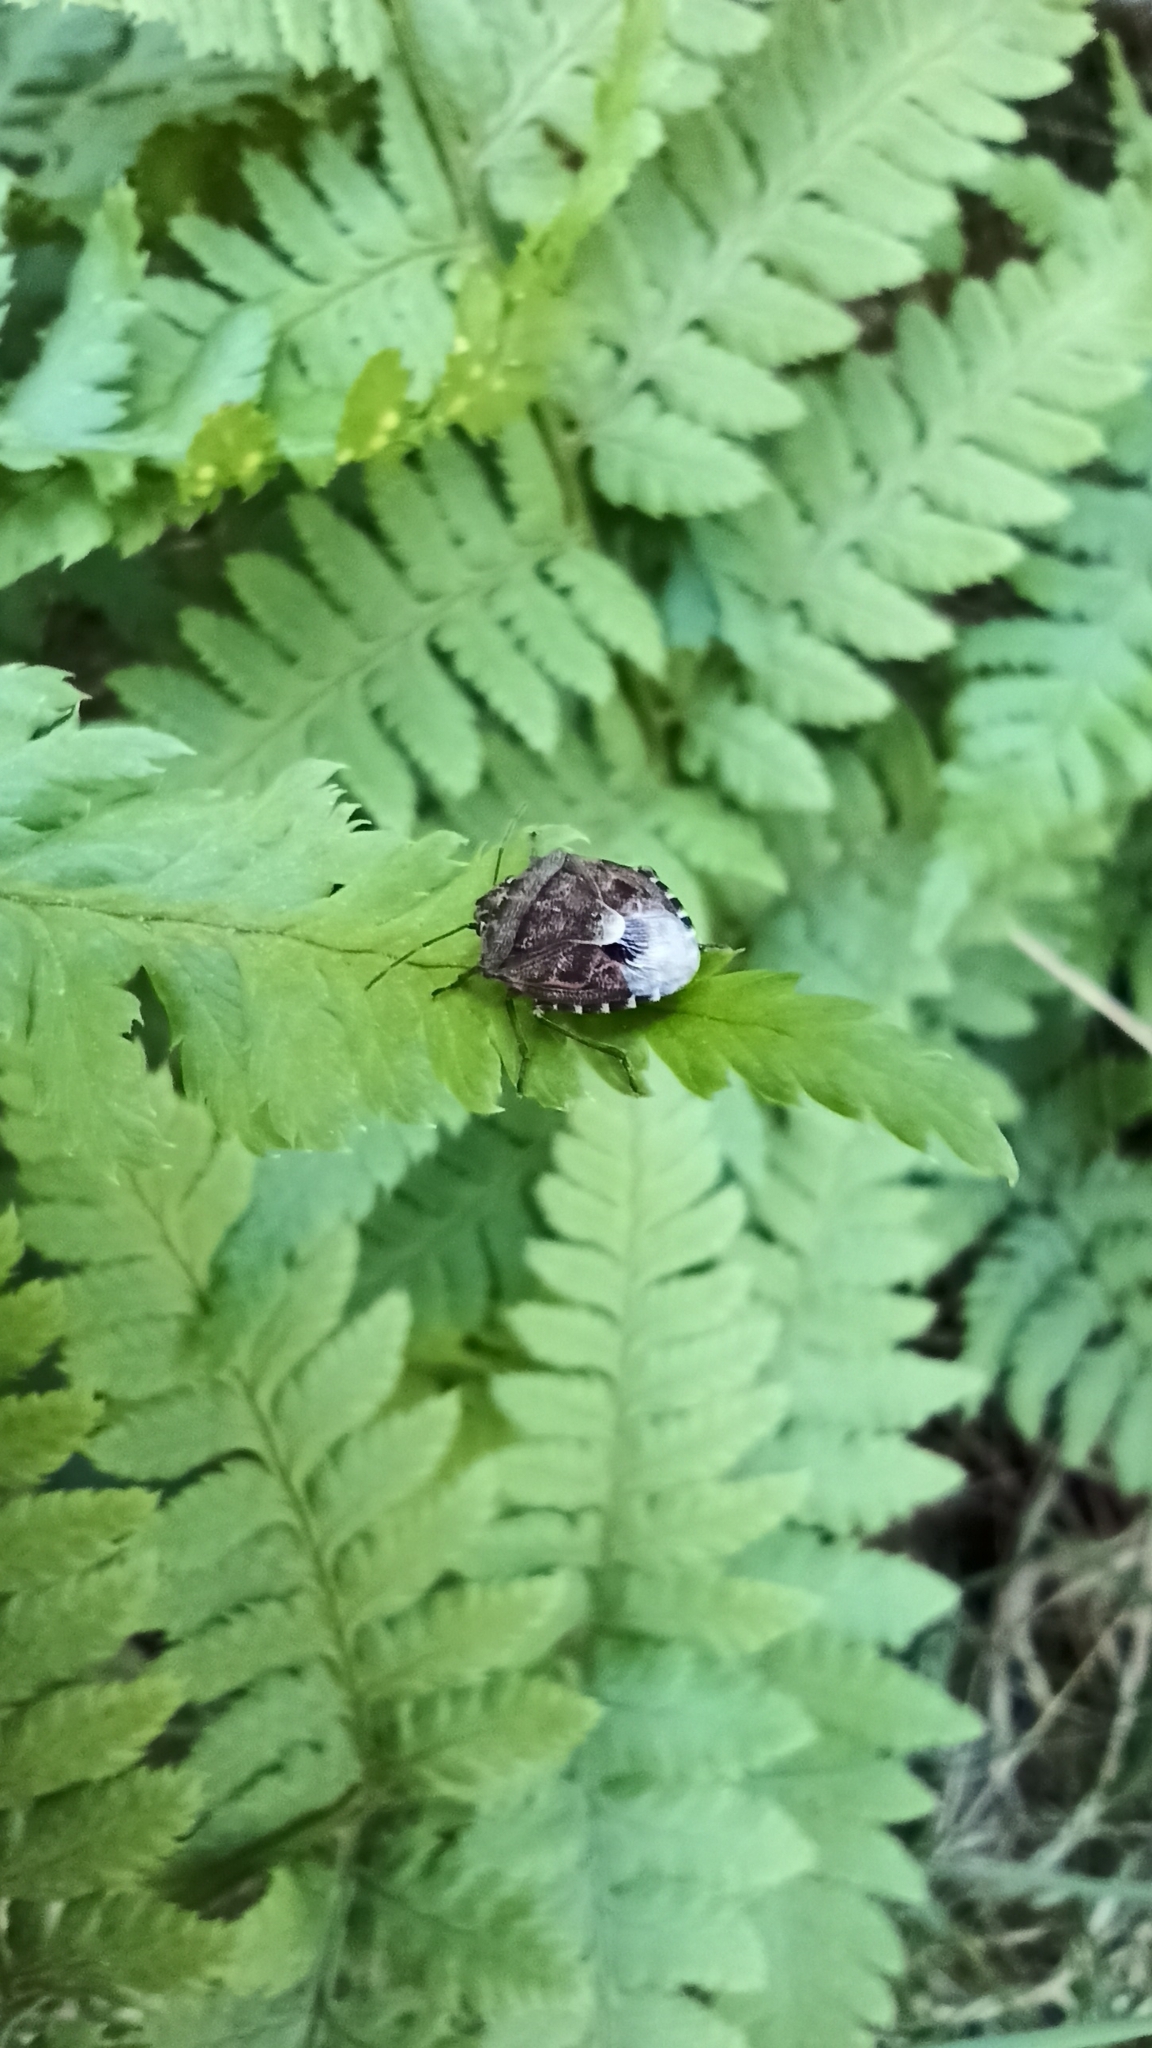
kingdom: Animalia
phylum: Arthropoda
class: Insecta
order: Hemiptera
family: Pentatomidae
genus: Holcogaster
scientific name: Holcogaster fibulata
